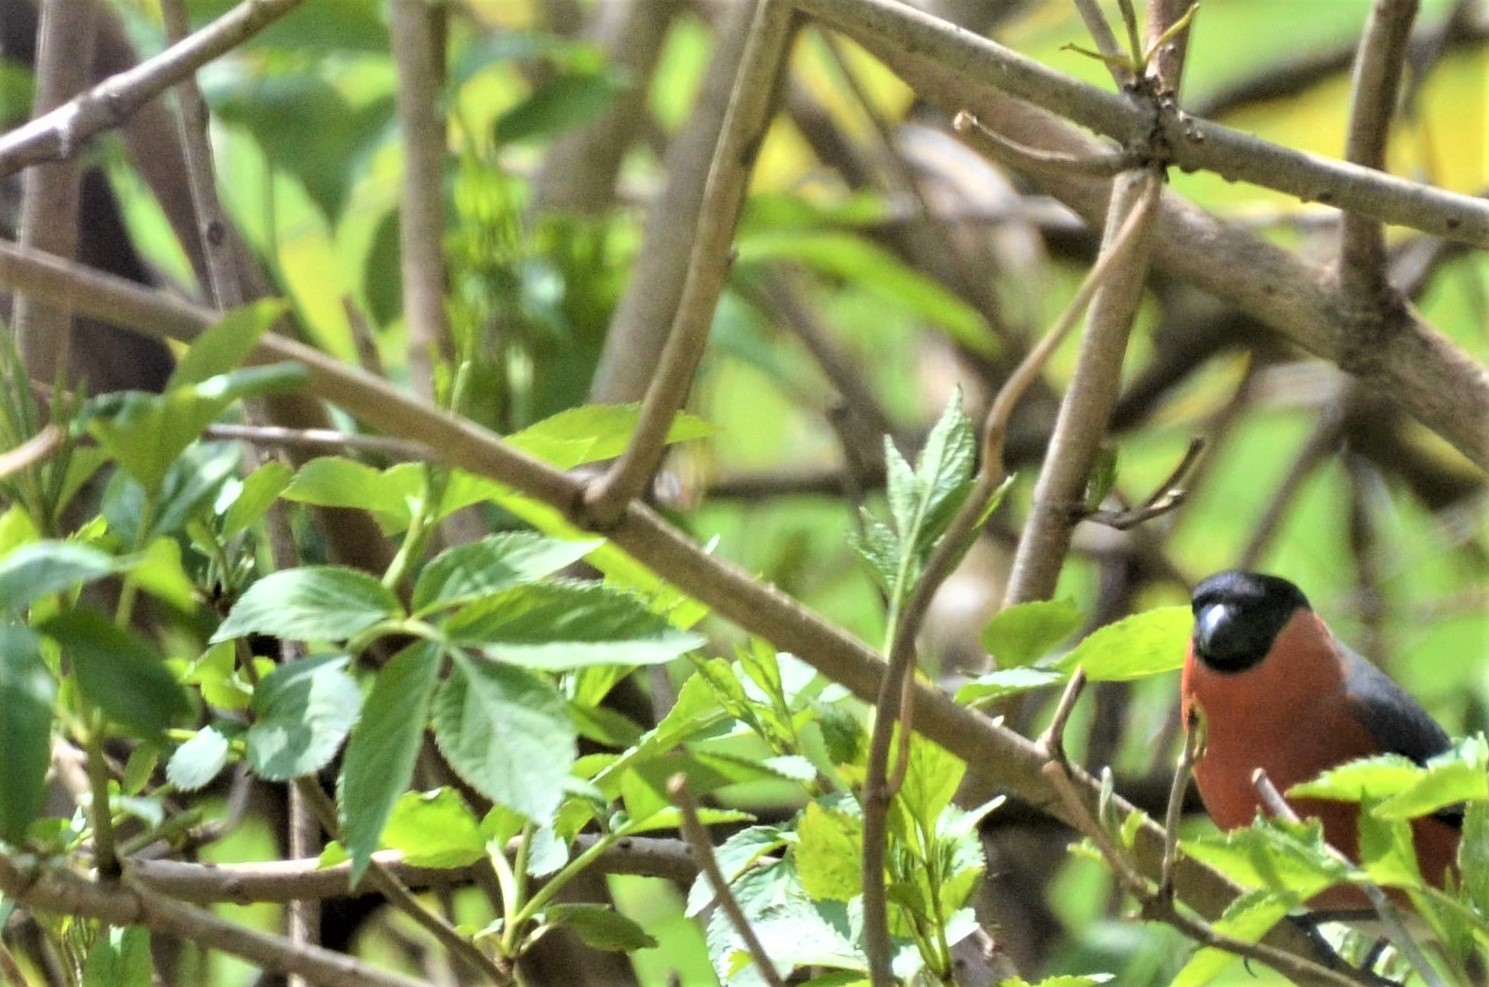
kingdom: Animalia
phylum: Chordata
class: Aves
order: Passeriformes
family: Fringillidae
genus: Pyrrhula
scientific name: Pyrrhula pyrrhula
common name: Eurasian bullfinch
